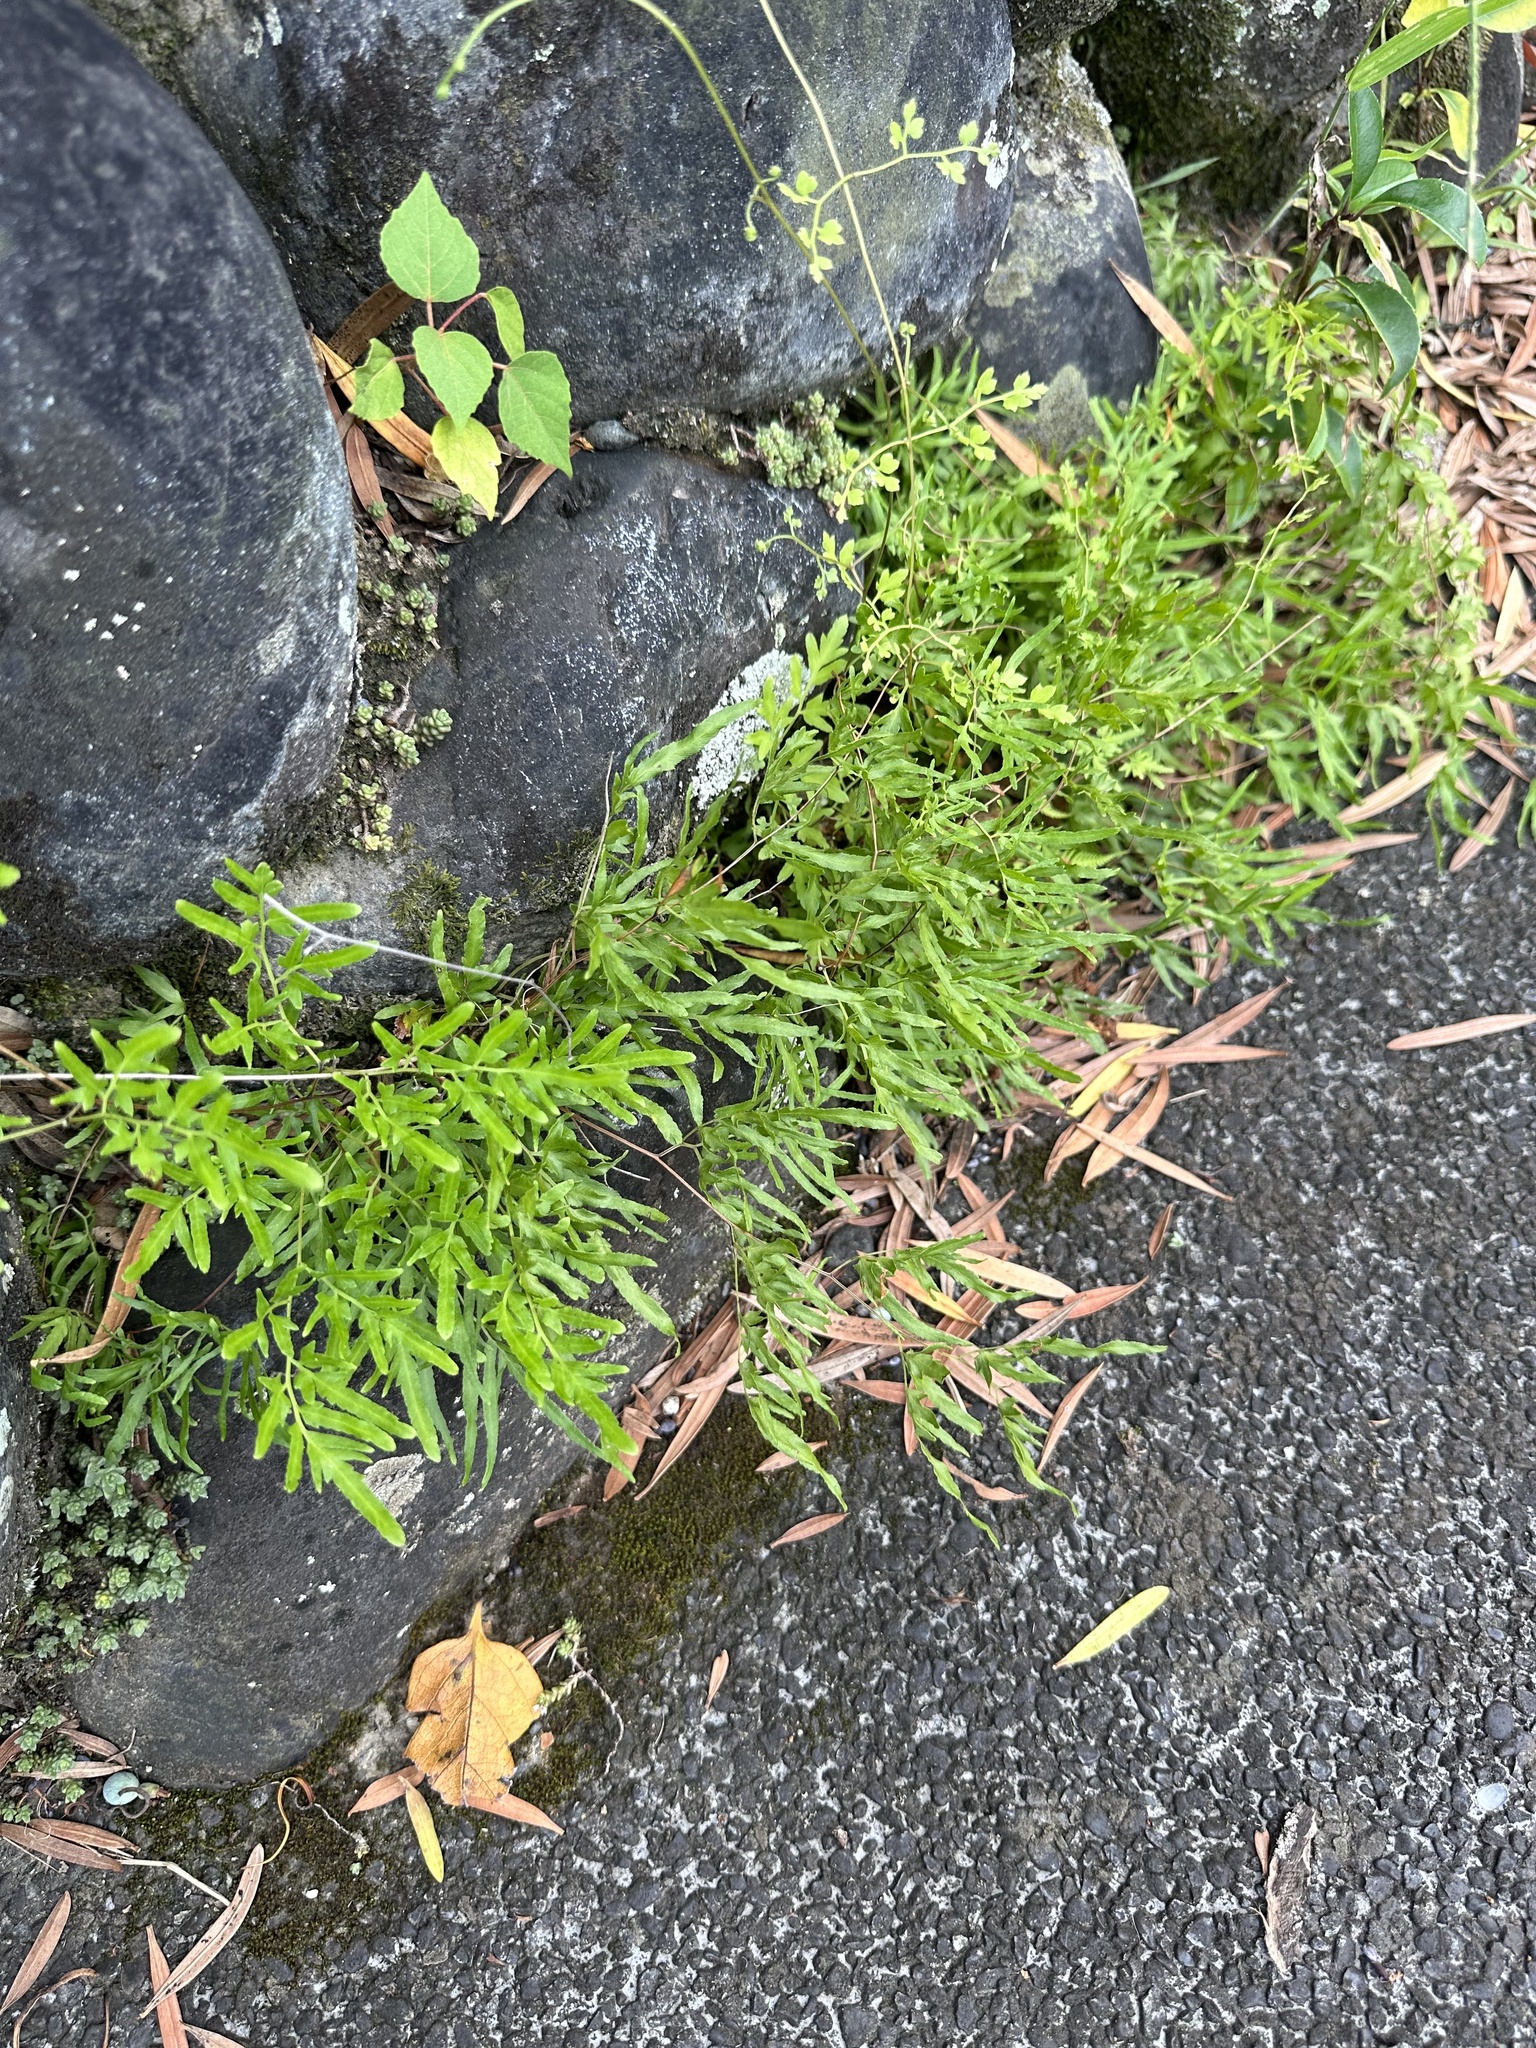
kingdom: Plantae
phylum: Tracheophyta
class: Polypodiopsida
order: Schizaeales
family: Lygodiaceae
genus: Lygodium
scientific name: Lygodium japonicum
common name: Japanese climbing fern
